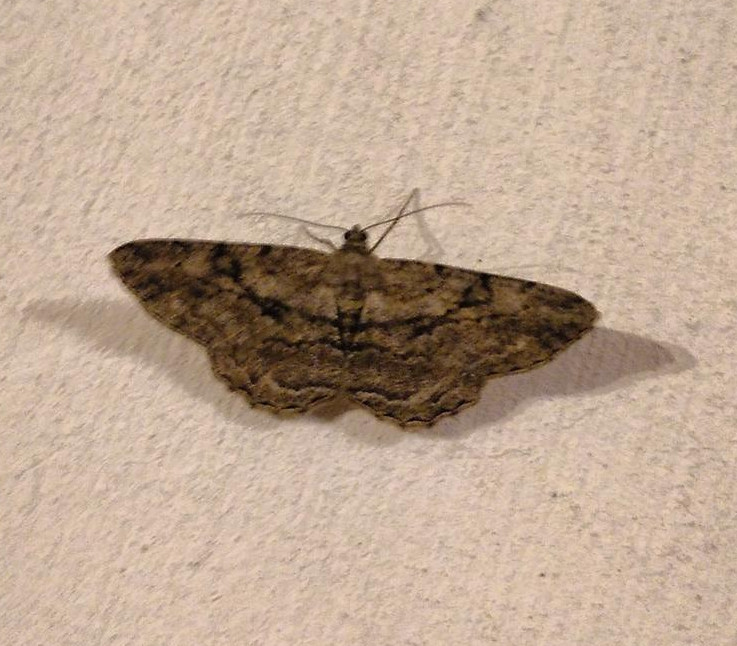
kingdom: Animalia
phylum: Arthropoda
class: Insecta
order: Lepidoptera
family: Geometridae
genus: Peribatodes
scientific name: Peribatodes rhomboidaria
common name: Willow beauty
